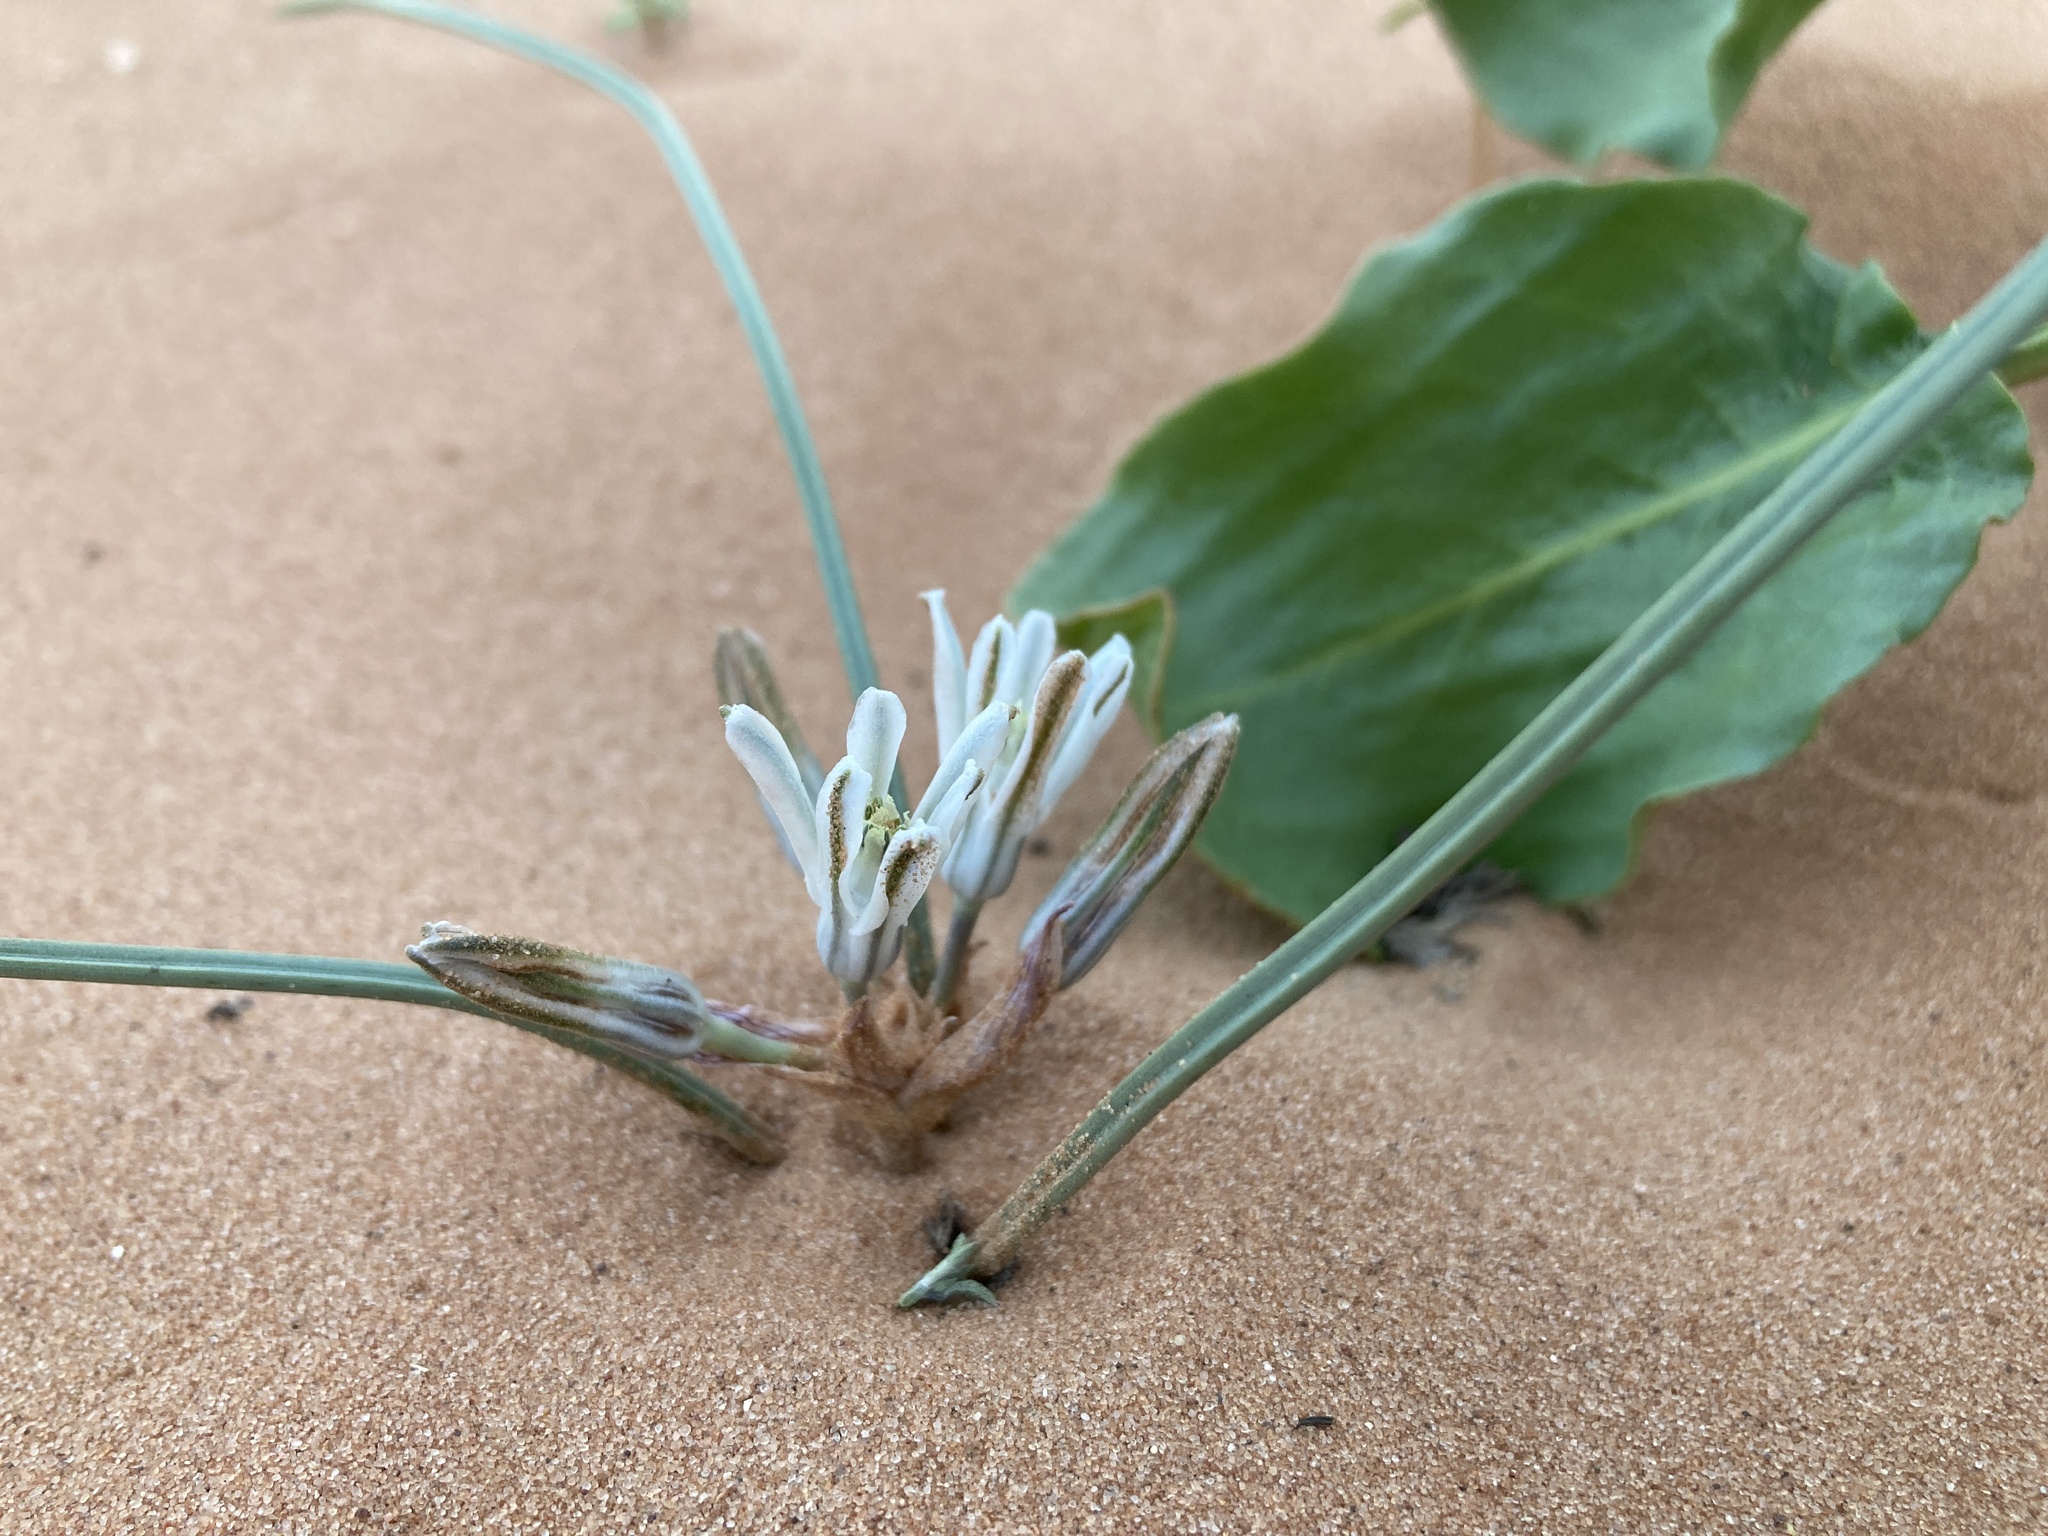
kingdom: Plantae
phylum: Tracheophyta
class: Liliopsida
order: Asparagales
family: Asparagaceae
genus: Androstephium
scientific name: Androstephium breviflorum
